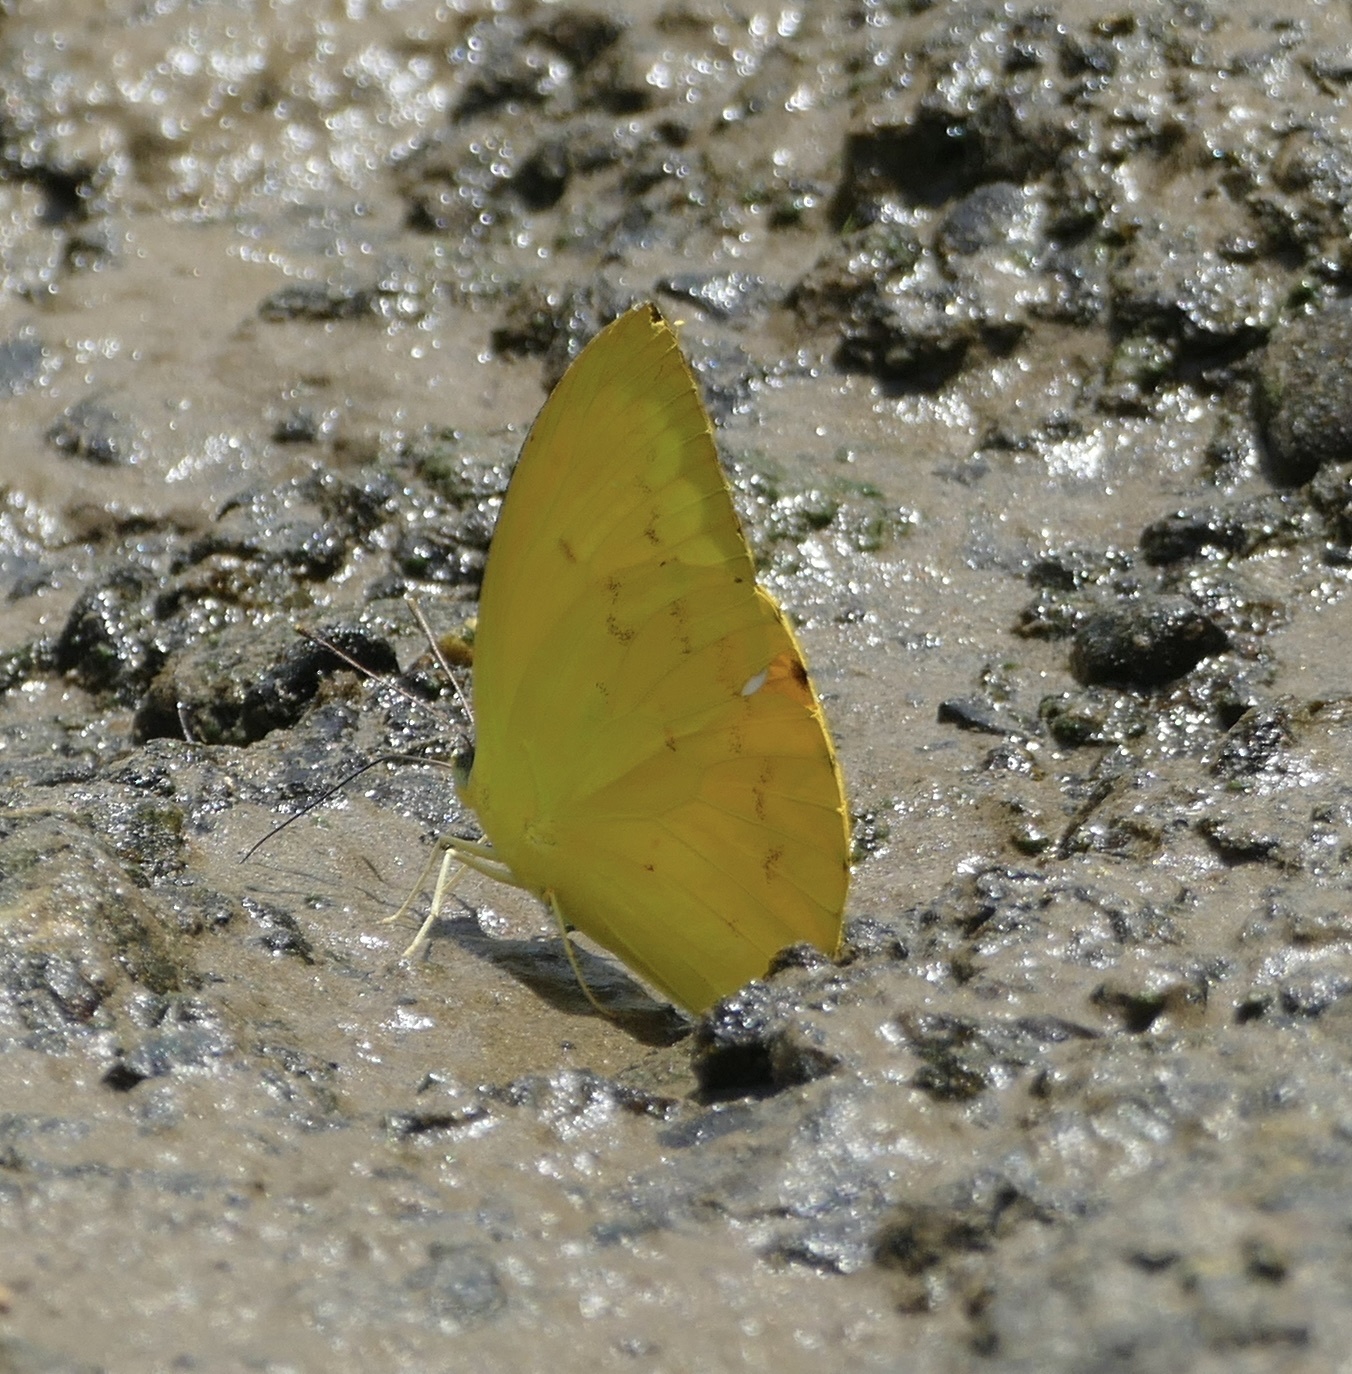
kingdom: Animalia
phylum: Arthropoda
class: Insecta
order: Lepidoptera
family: Pieridae
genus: Catopsilia
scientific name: Catopsilia scylla
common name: Orange emigrant
